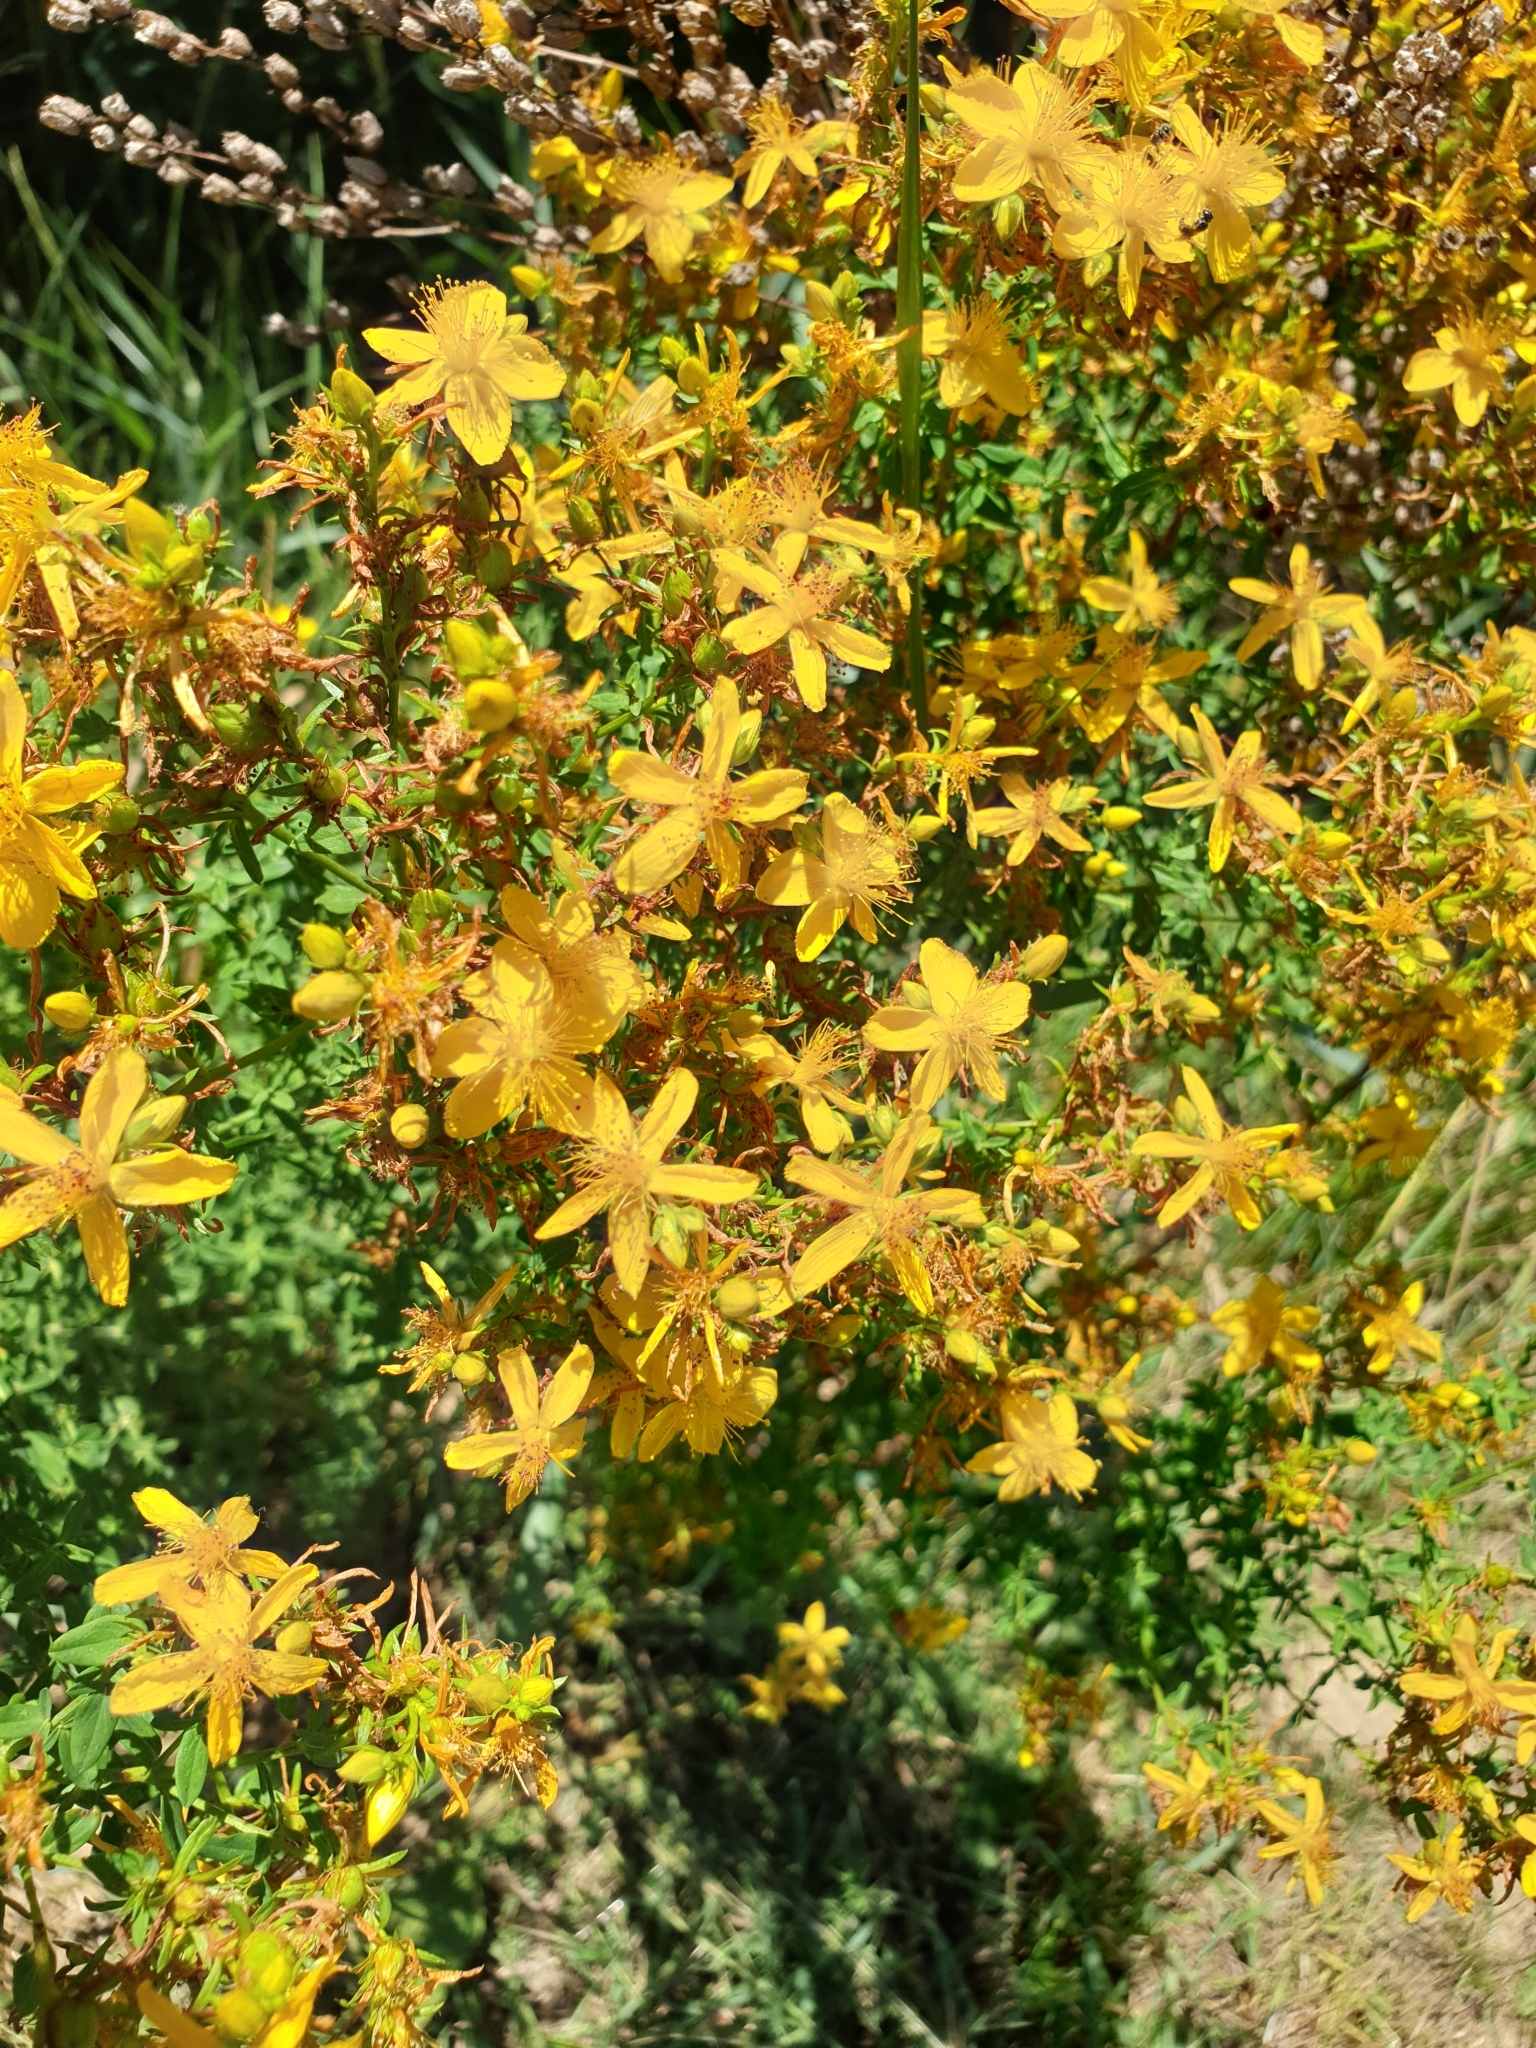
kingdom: Plantae
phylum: Tracheophyta
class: Magnoliopsida
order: Malpighiales
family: Hypericaceae
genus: Hypericum
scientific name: Hypericum perforatum
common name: Common st. johnswort
